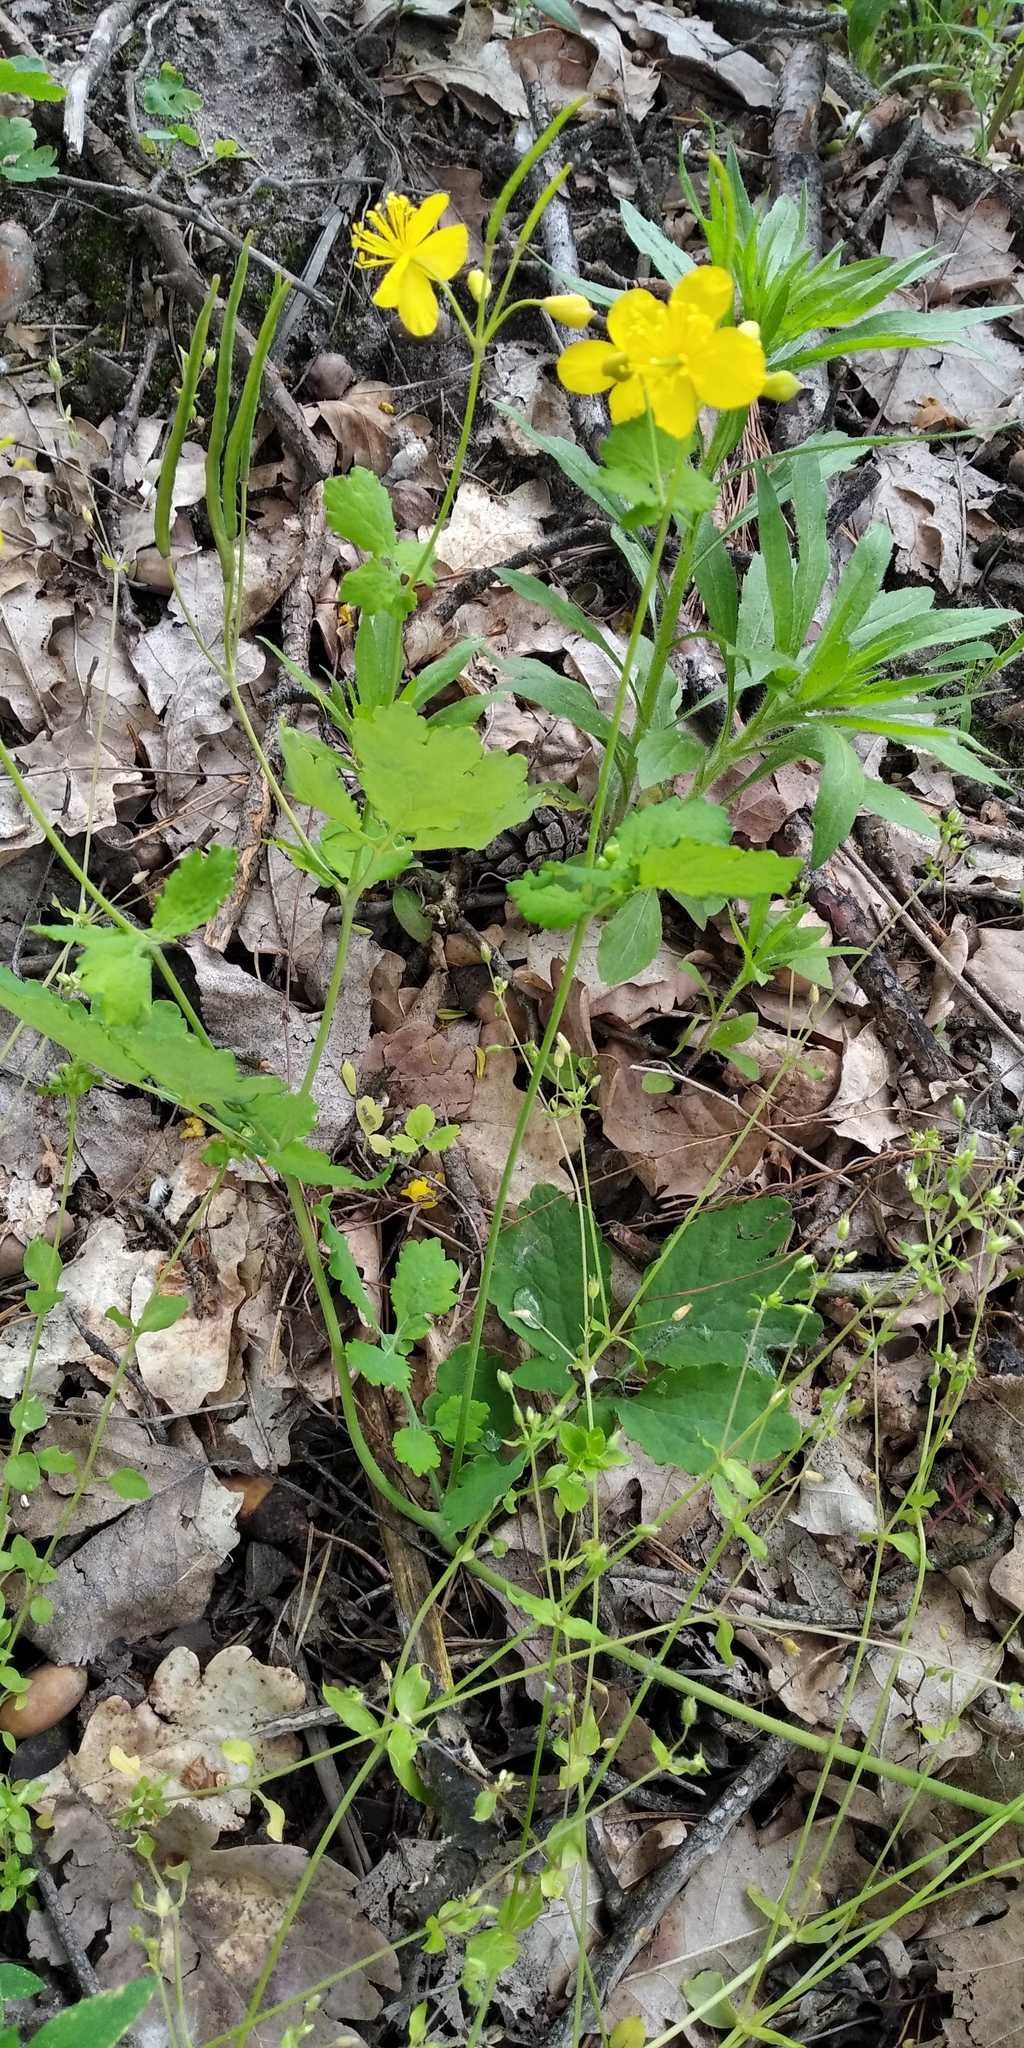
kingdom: Plantae
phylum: Tracheophyta
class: Magnoliopsida
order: Ranunculales
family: Papaveraceae
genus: Chelidonium
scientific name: Chelidonium majus
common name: Greater celandine
